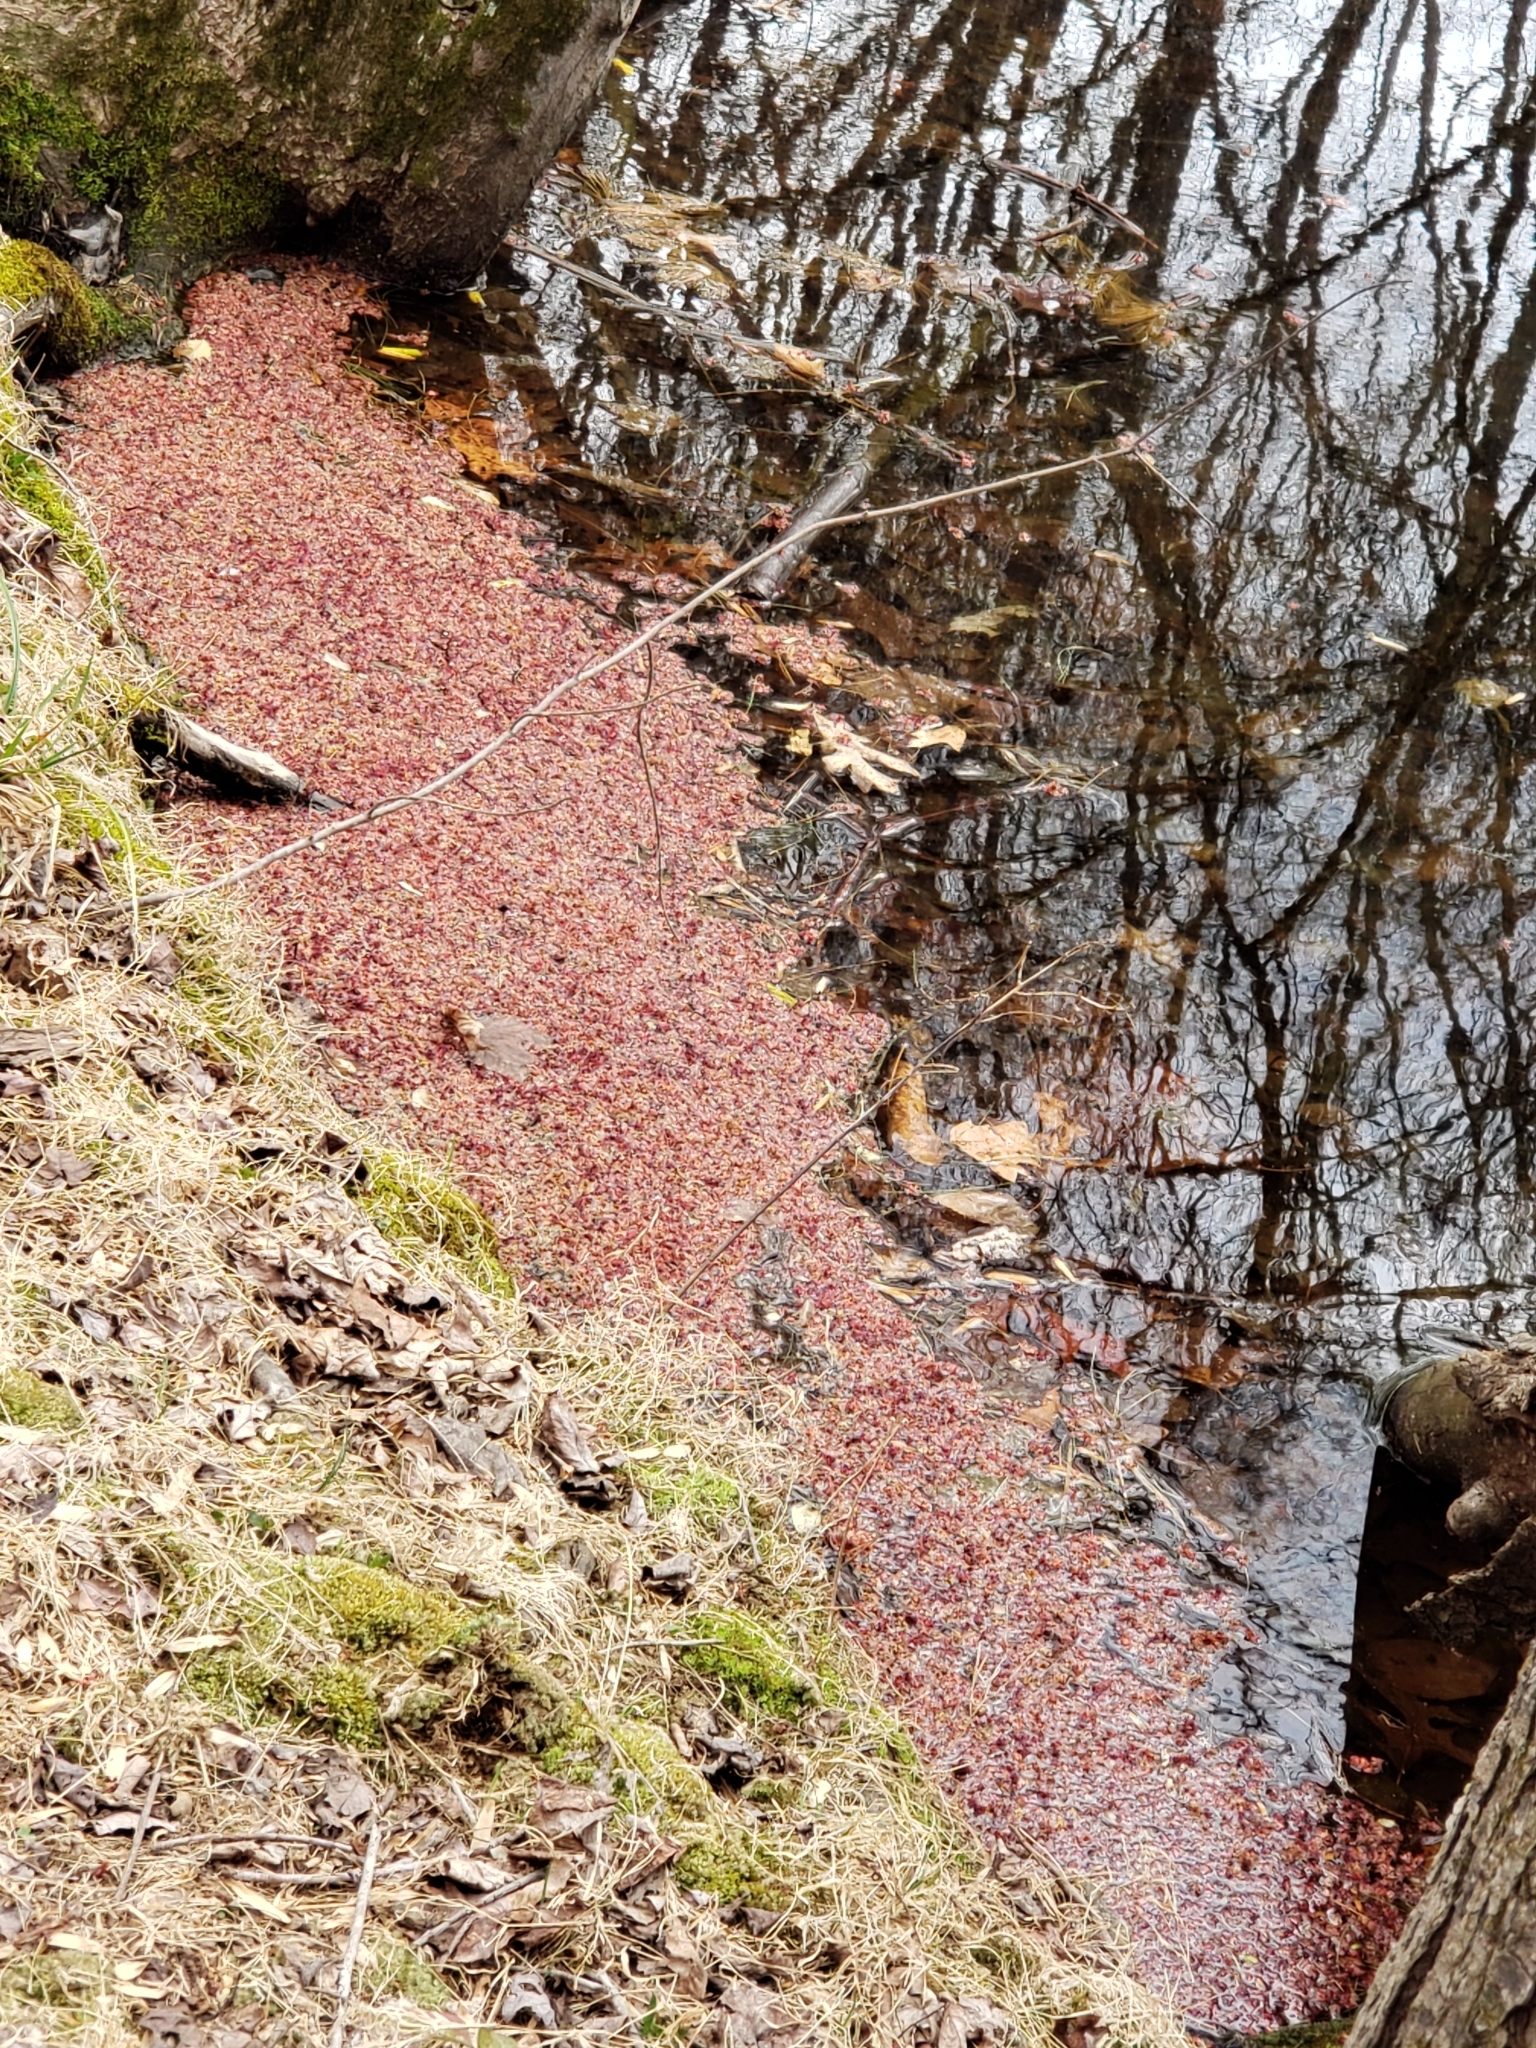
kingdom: Plantae
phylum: Tracheophyta
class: Magnoliopsida
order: Sapindales
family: Sapindaceae
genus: Acer
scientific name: Acer rubrum
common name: Red maple
